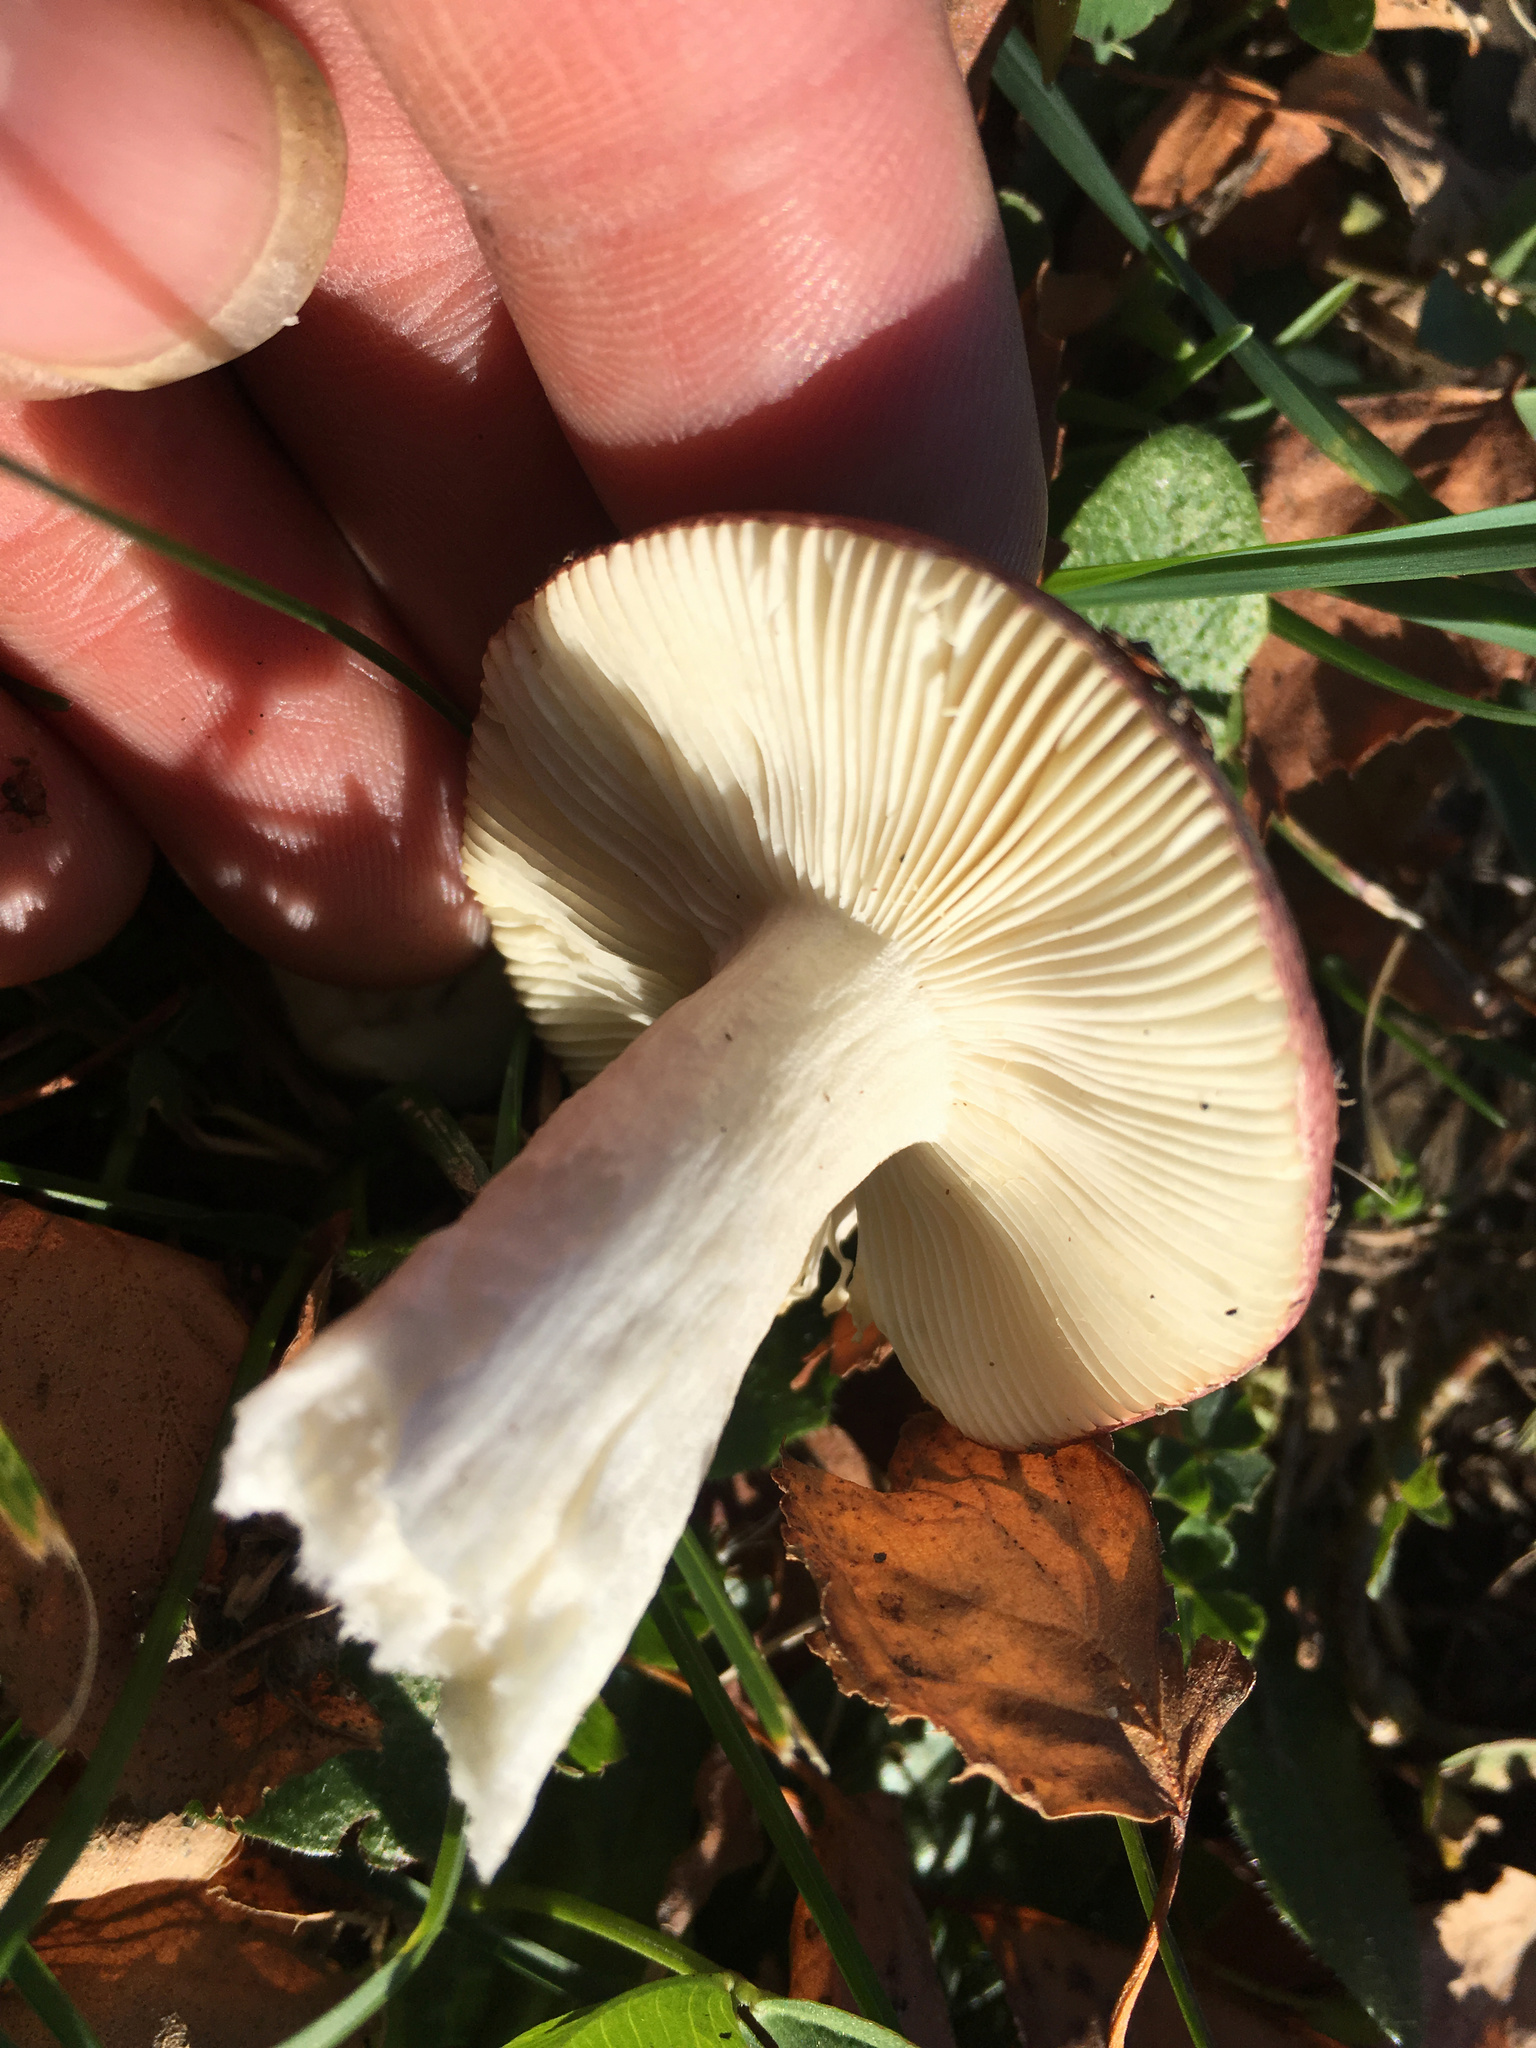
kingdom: Fungi
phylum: Basidiomycota
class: Agaricomycetes
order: Russulales
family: Russulaceae
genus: Russula
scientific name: Russula nitida
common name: Purple swamp brittlegill
